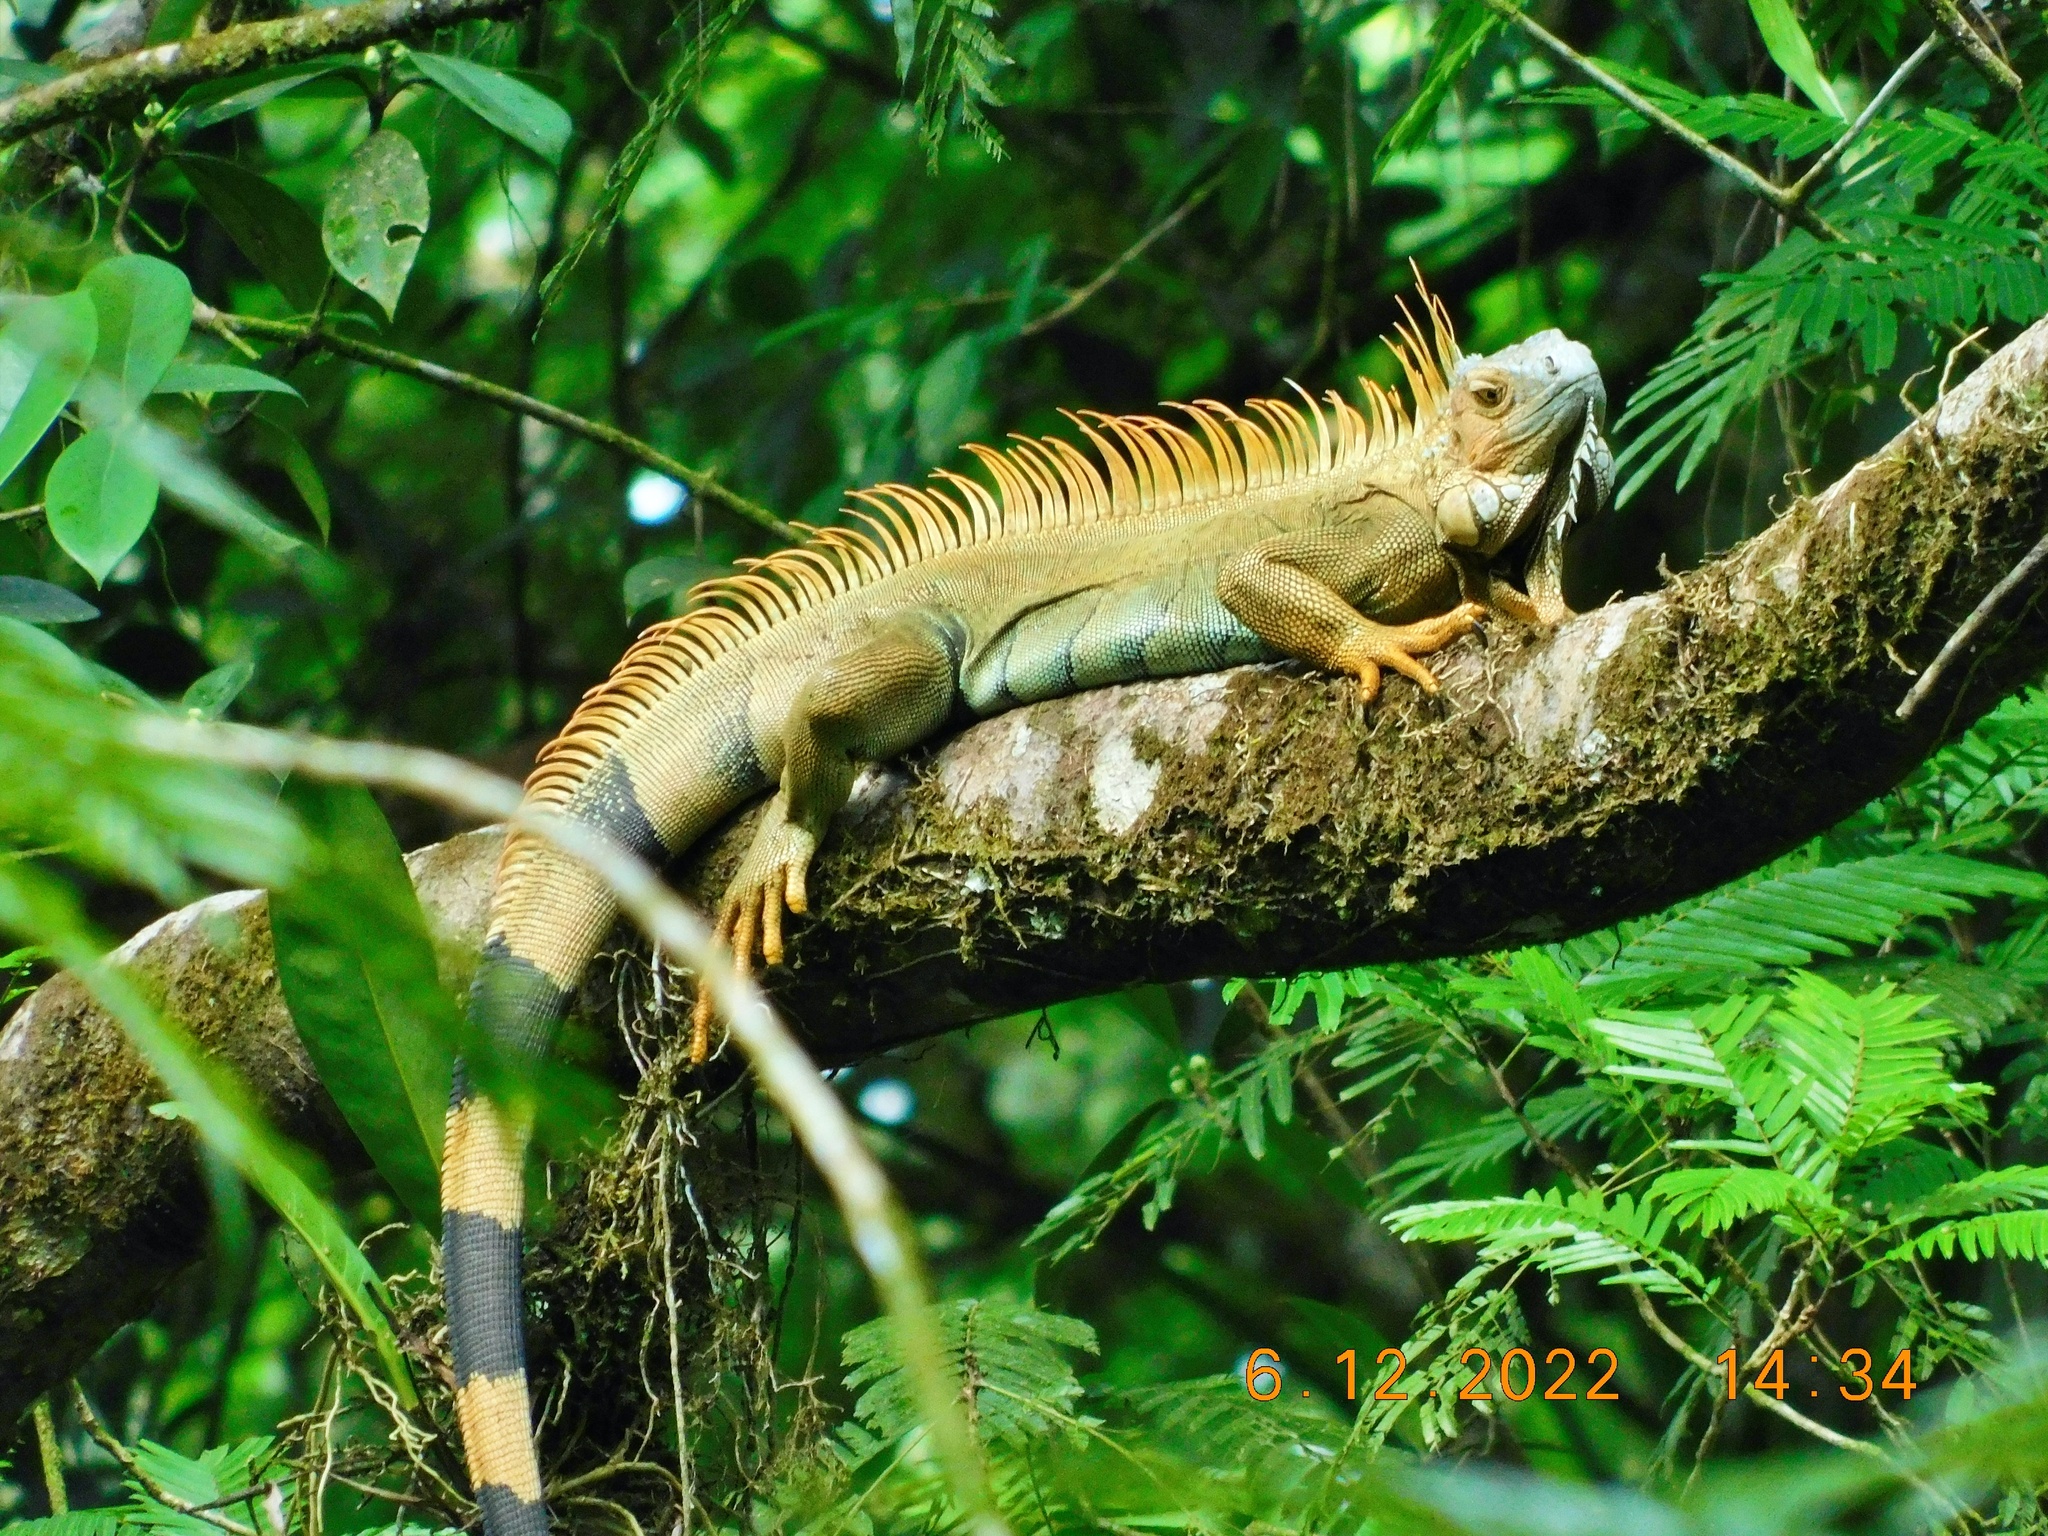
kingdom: Animalia
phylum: Chordata
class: Squamata
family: Iguanidae
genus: Iguana
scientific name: Iguana iguana
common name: Green iguana
